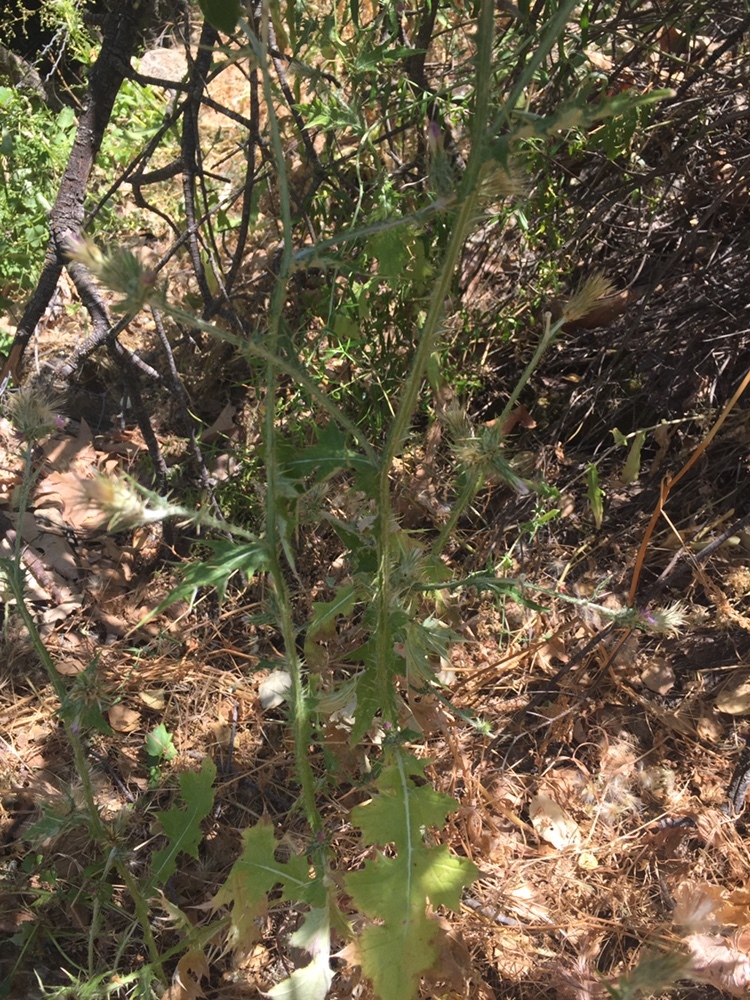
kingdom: Plantae
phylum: Tracheophyta
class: Magnoliopsida
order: Asterales
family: Asteraceae
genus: Carduus
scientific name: Carduus pycnocephalus
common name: Plymouth thistle
